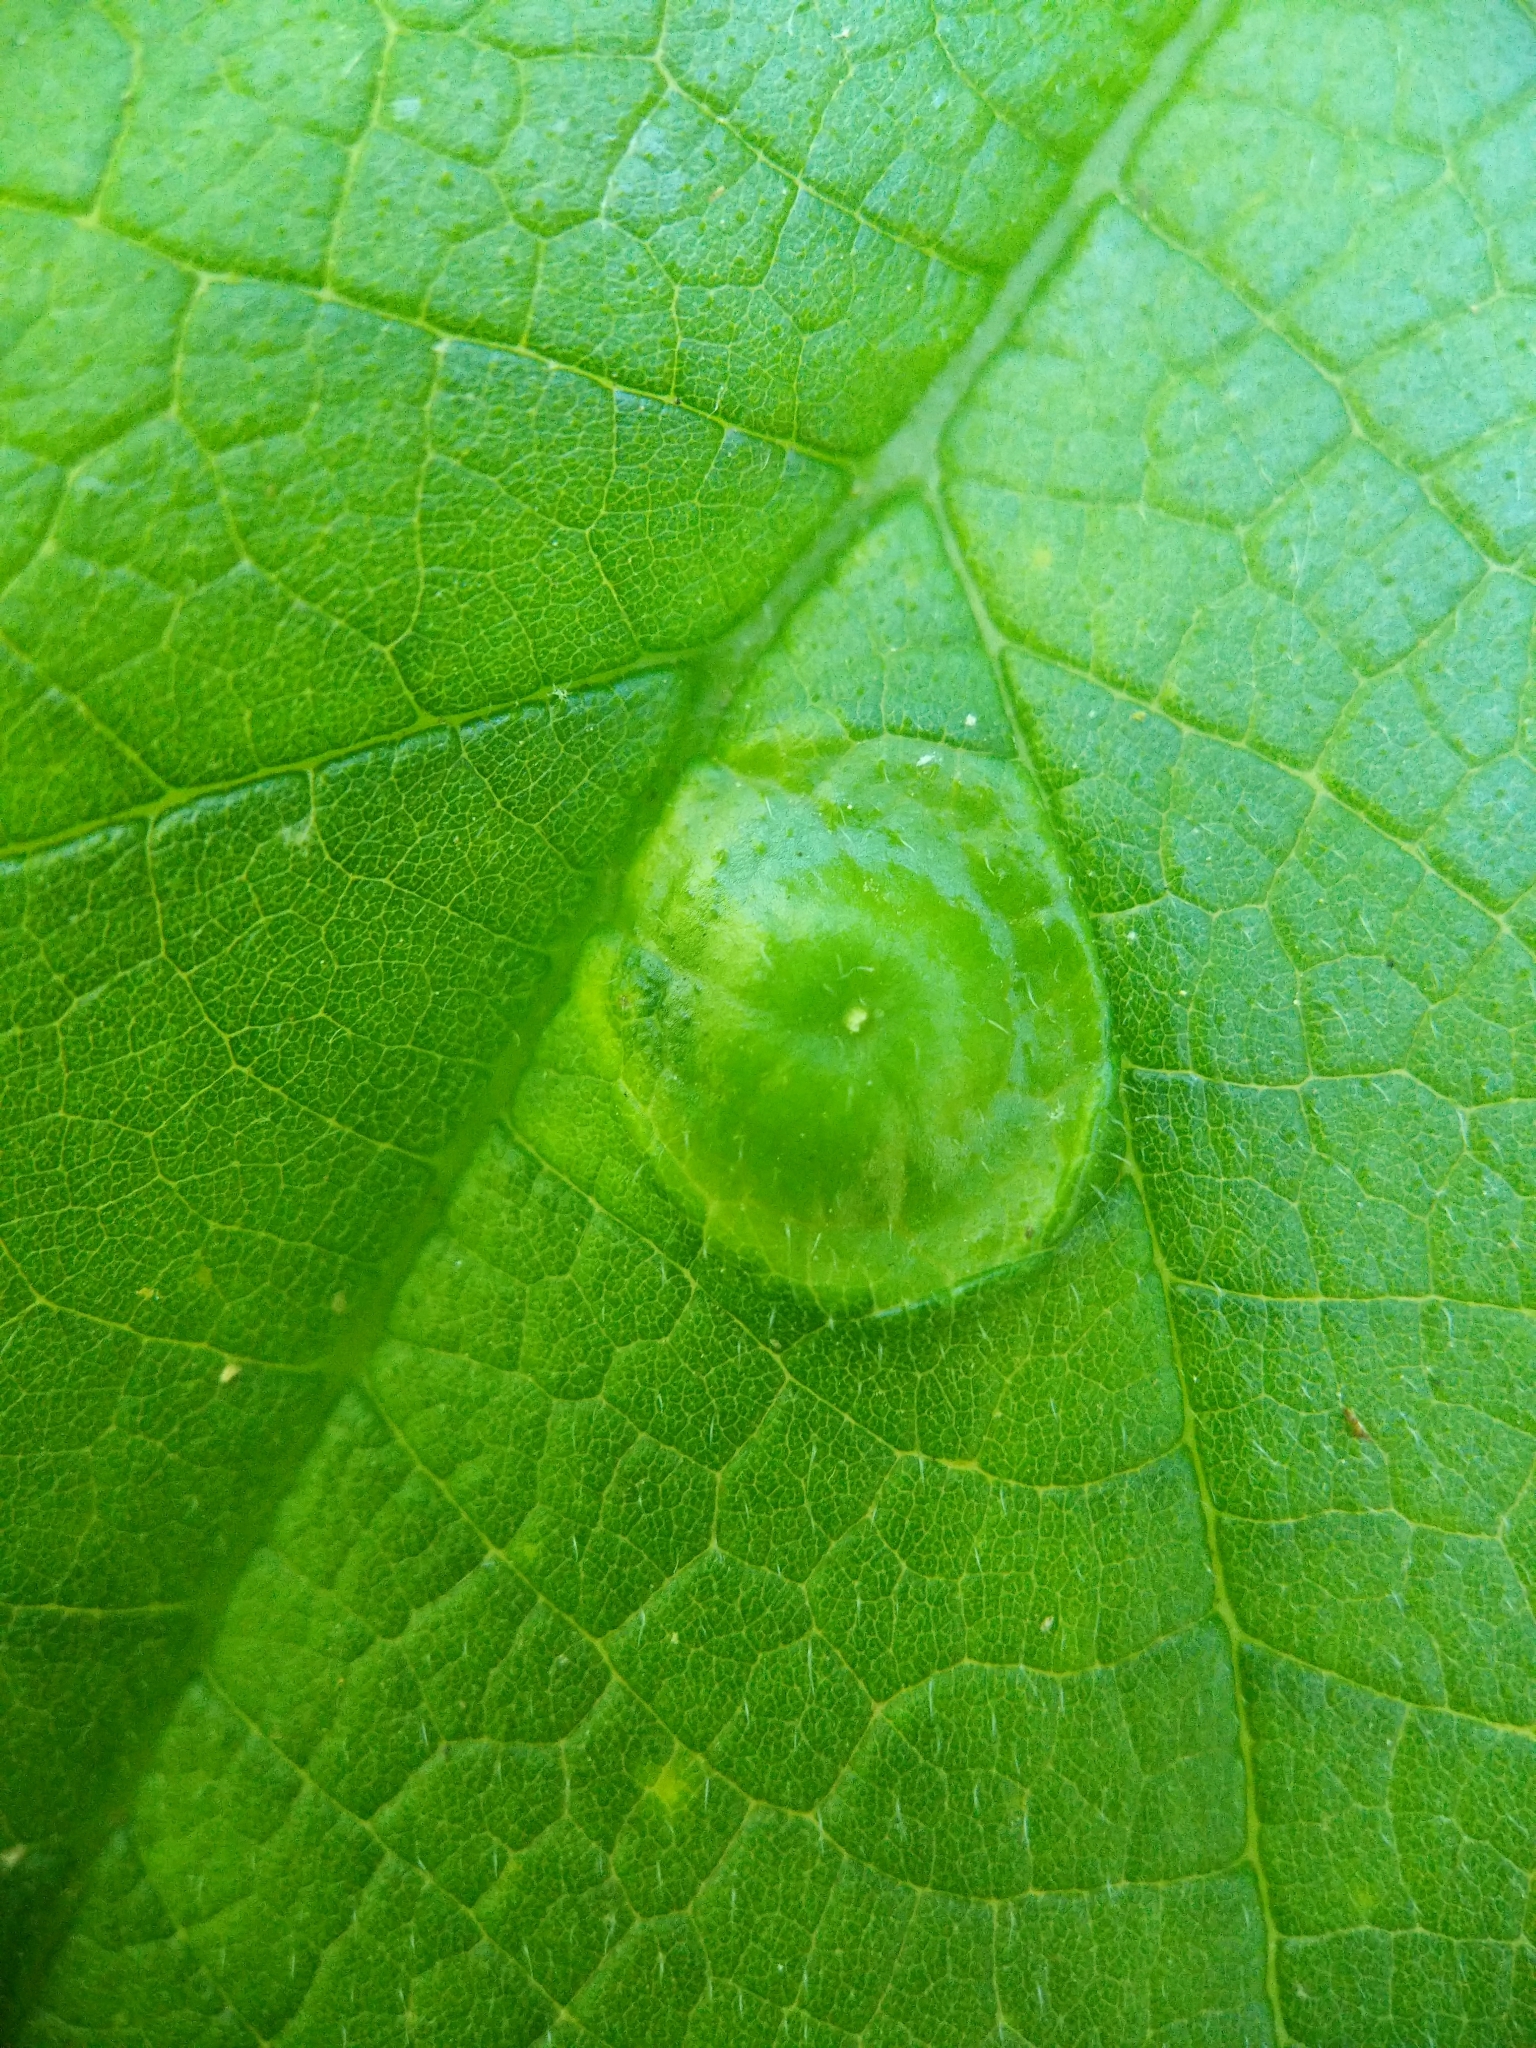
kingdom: Animalia
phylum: Arthropoda
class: Insecta
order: Hemiptera
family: Aphalaridae
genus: Pachypsylla
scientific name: Pachypsylla celtidisumbilicus
